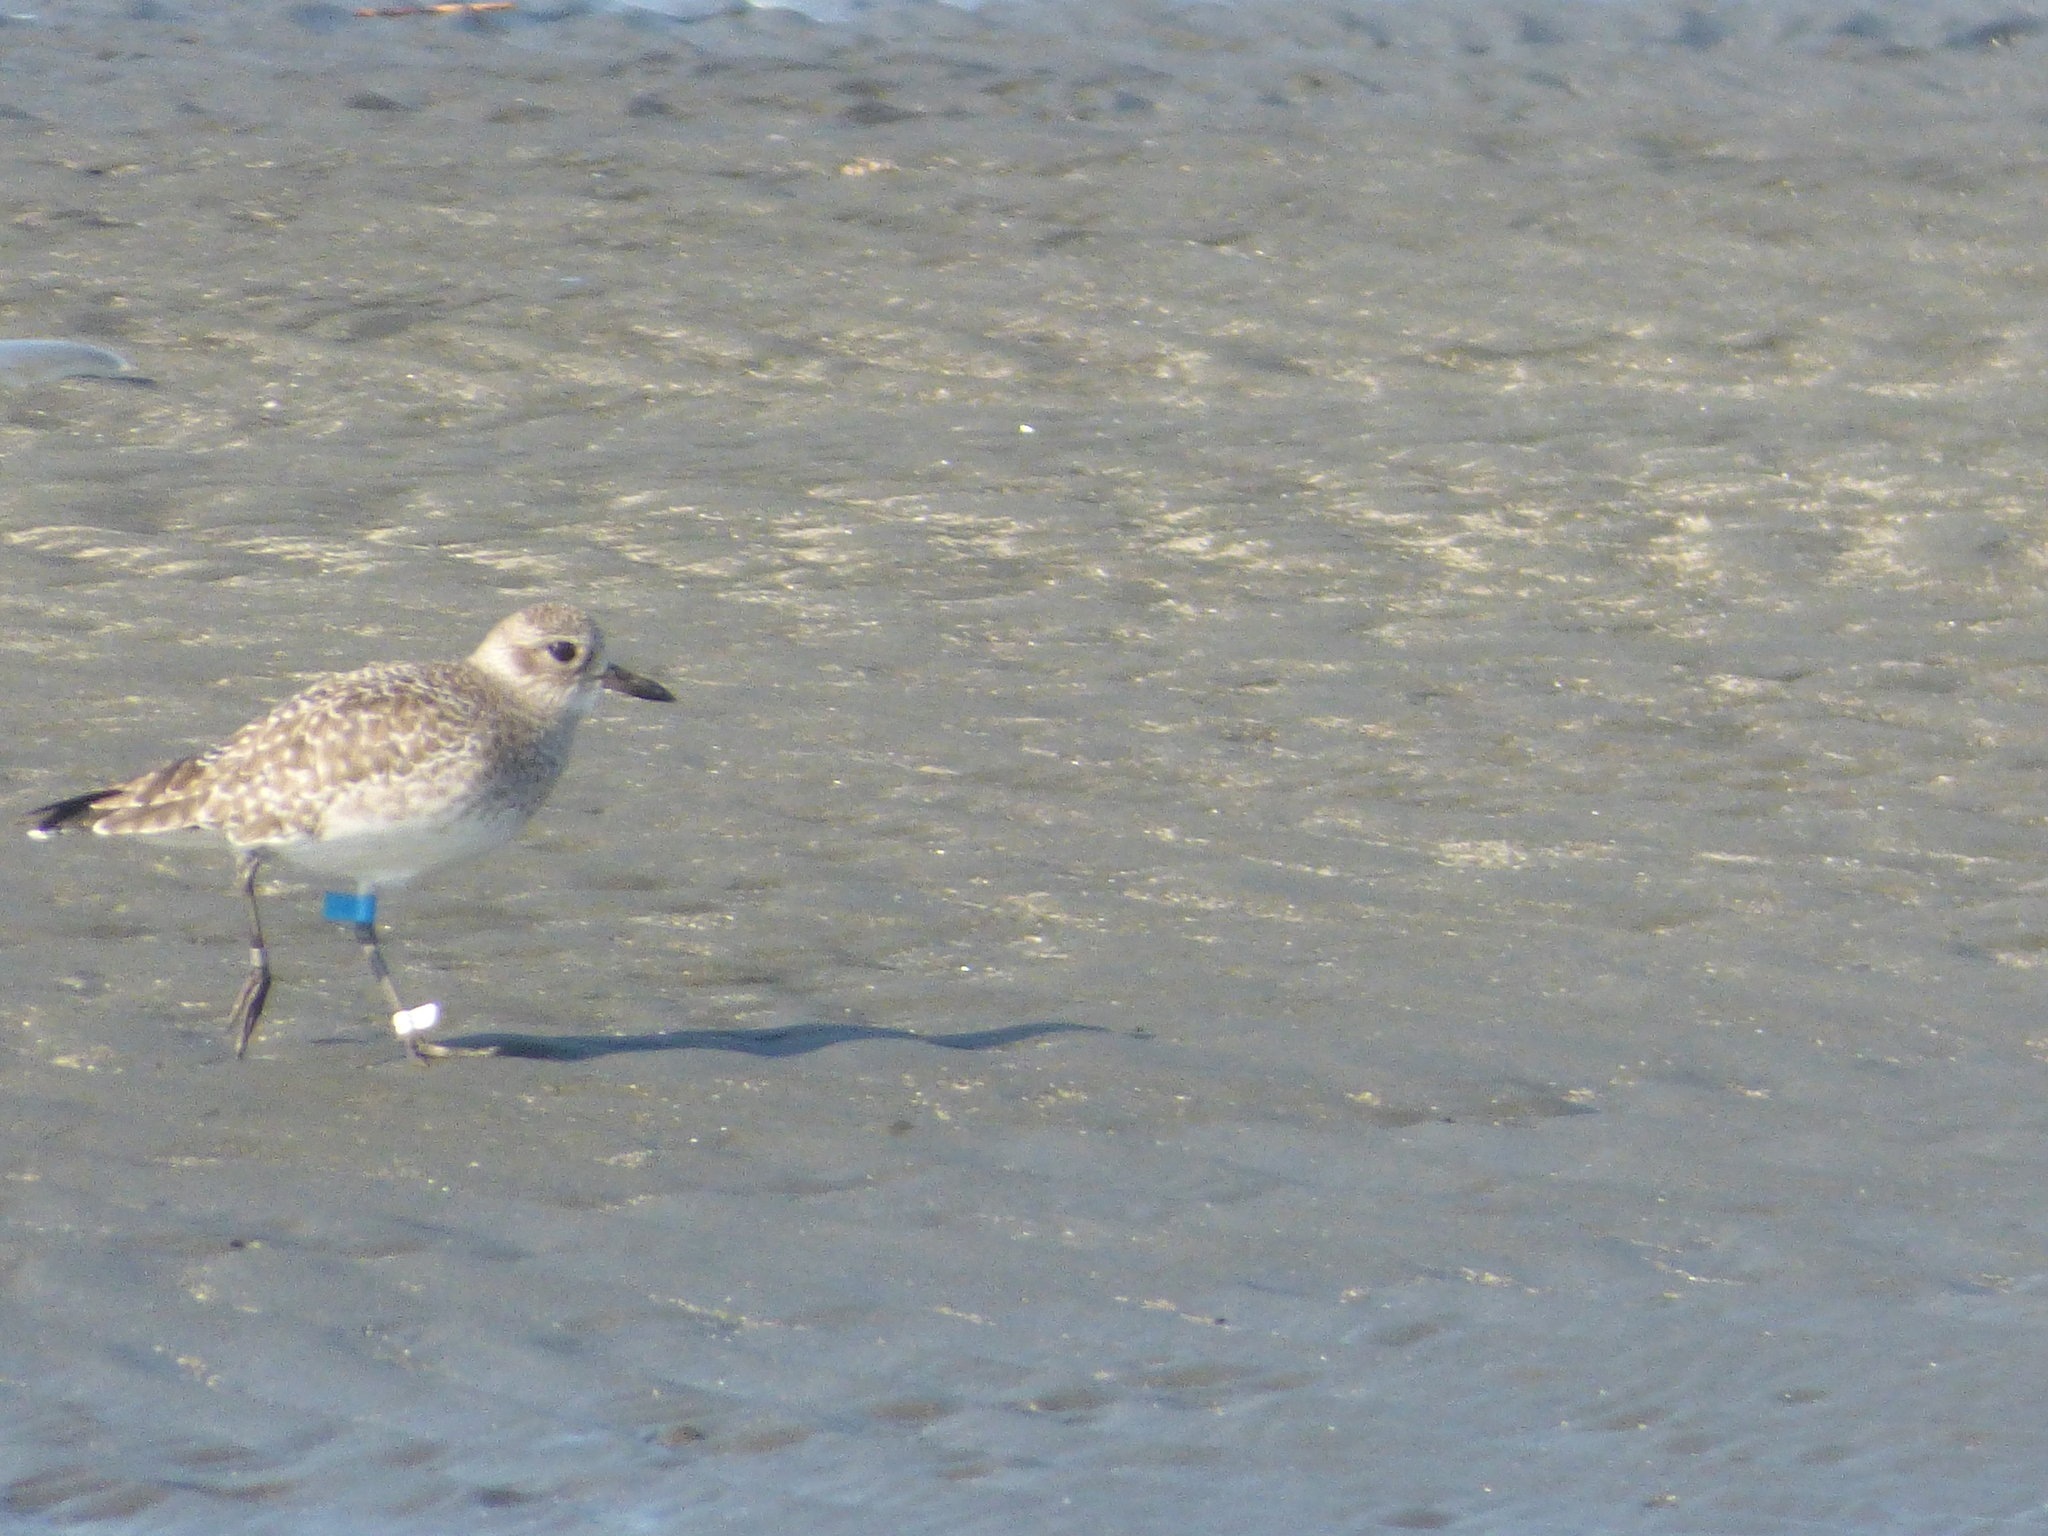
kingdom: Animalia
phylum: Chordata
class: Aves
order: Charadriiformes
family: Charadriidae
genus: Pluvialis
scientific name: Pluvialis squatarola
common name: Grey plover
